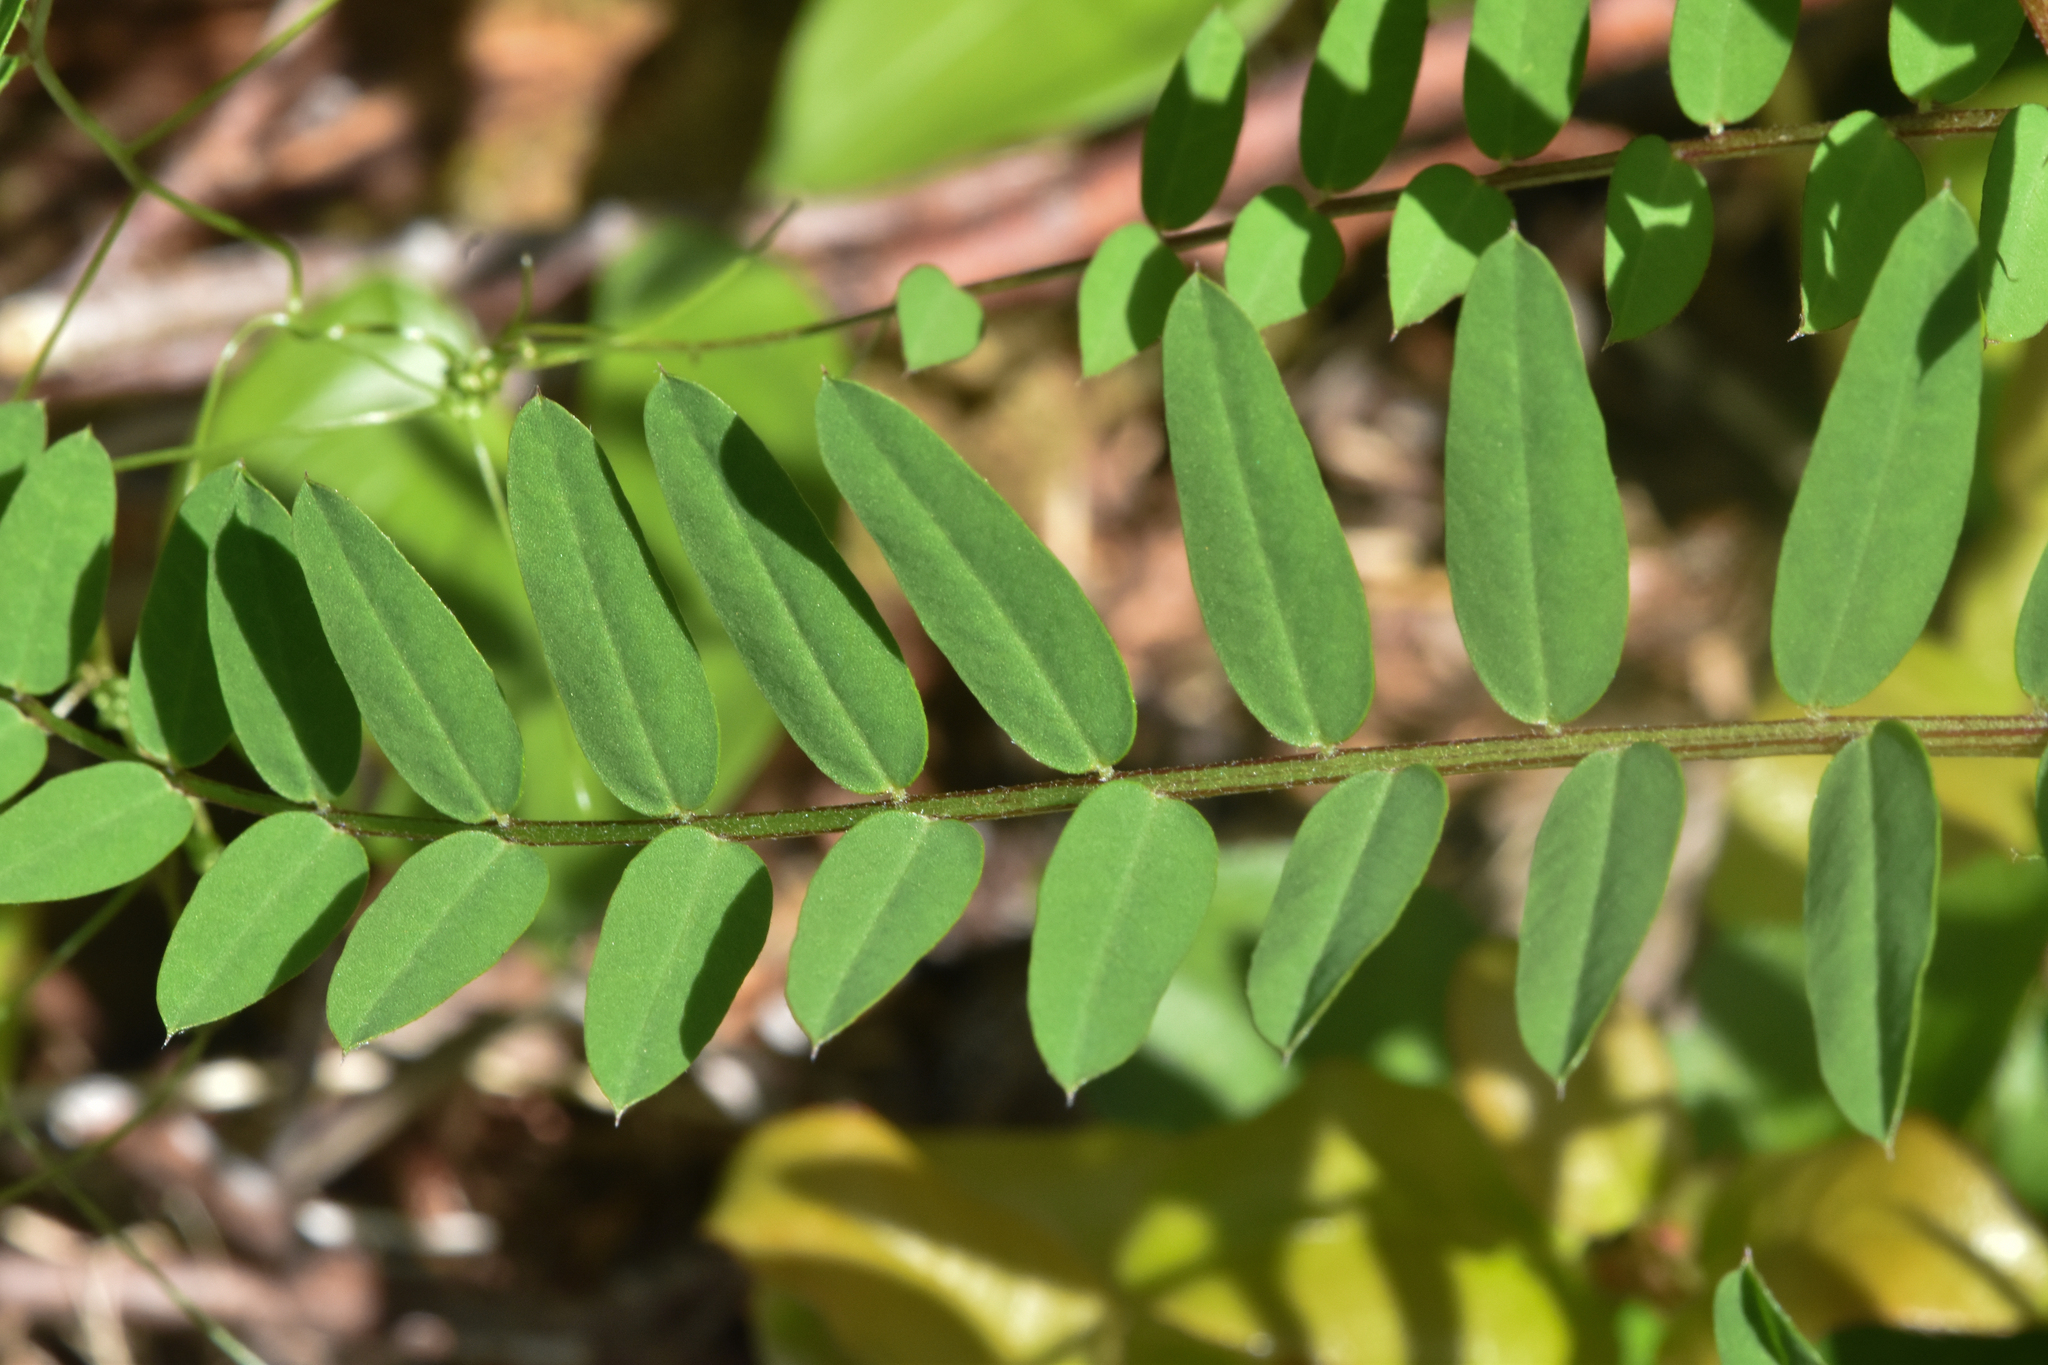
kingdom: Plantae
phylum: Tracheophyta
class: Magnoliopsida
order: Fabales
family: Fabaceae
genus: Vicia
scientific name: Vicia
